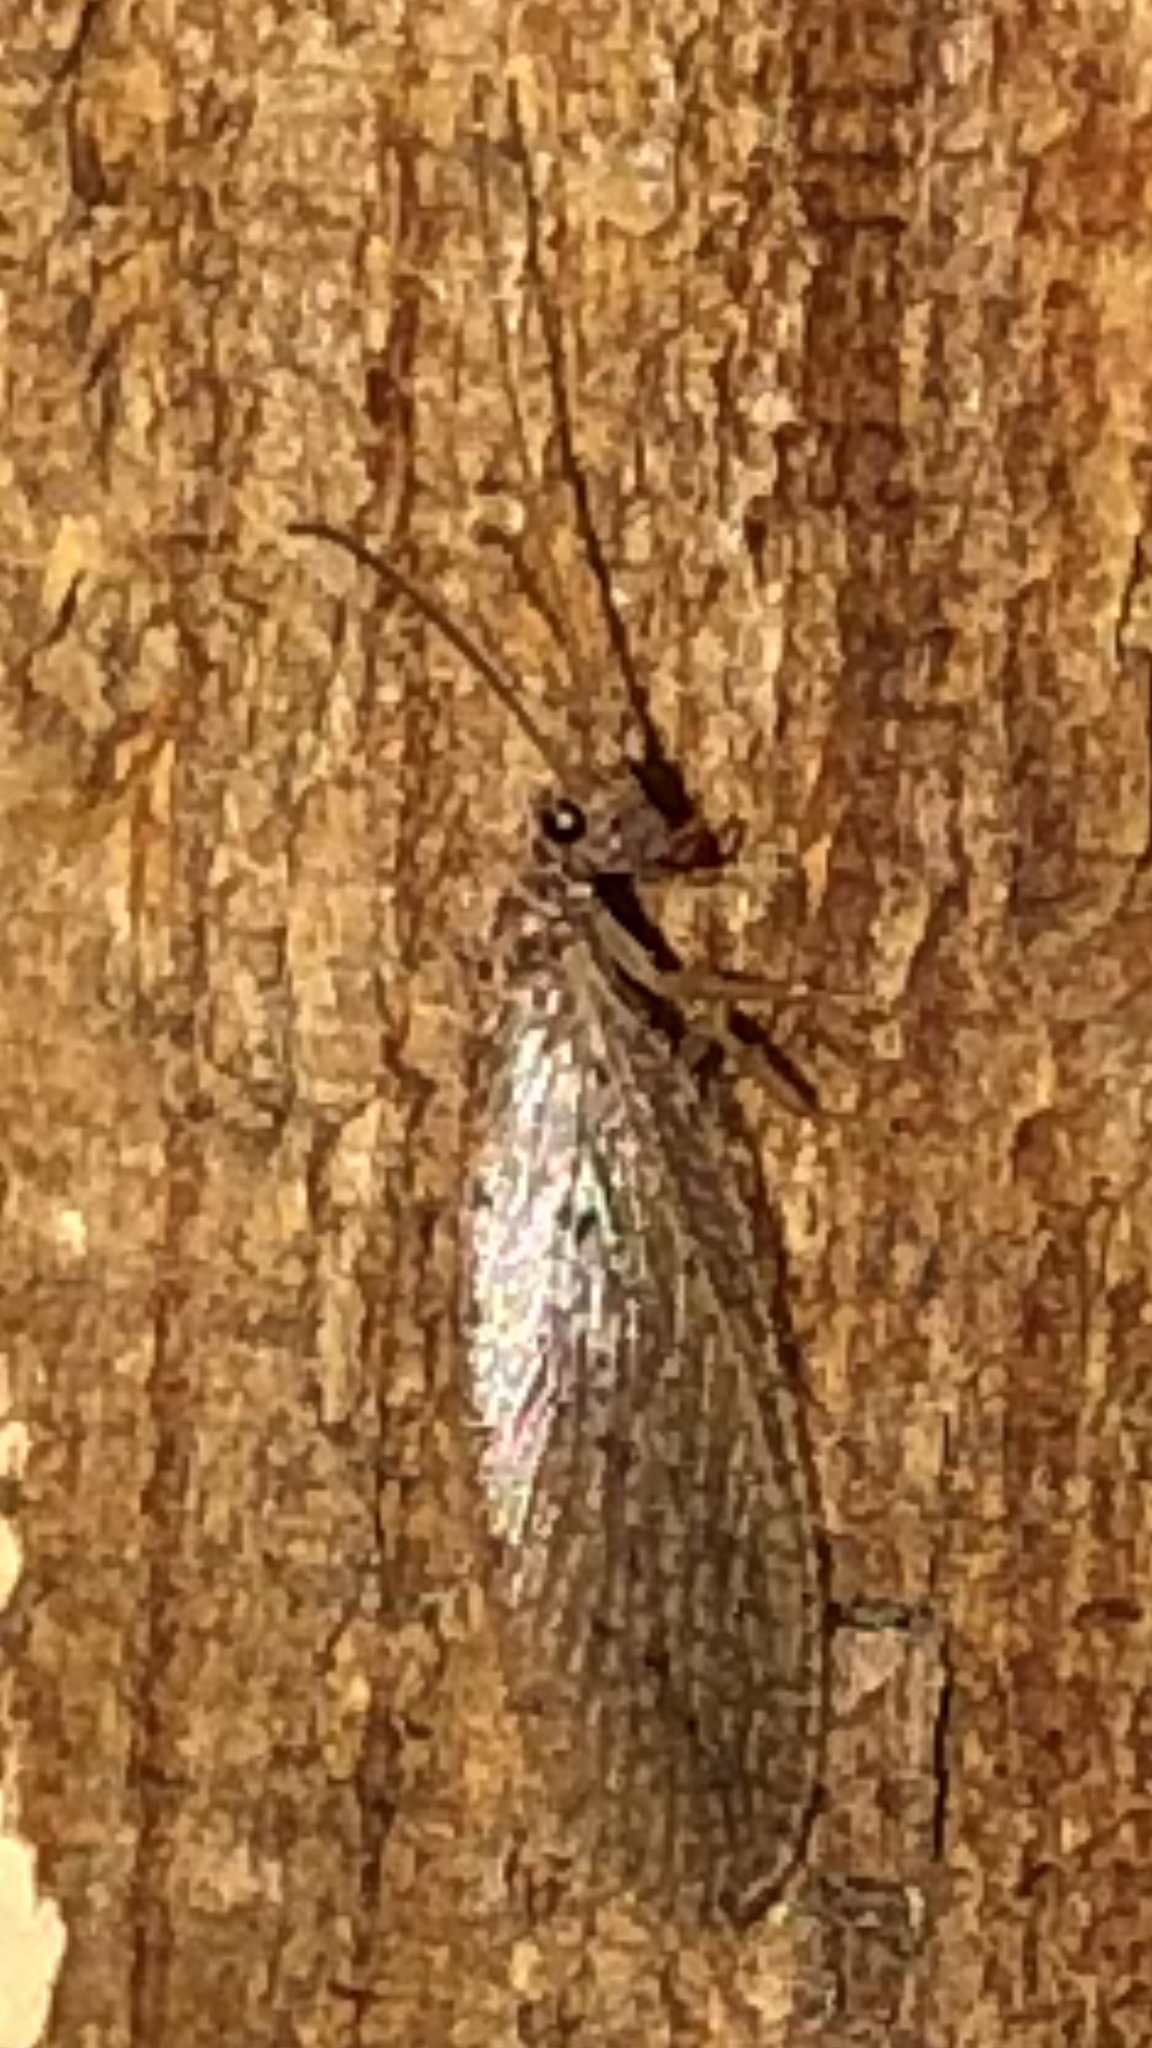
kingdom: Animalia
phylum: Arthropoda
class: Insecta
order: Neuroptera
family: Hemerobiidae
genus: Micromus
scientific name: Micromus subanticus
